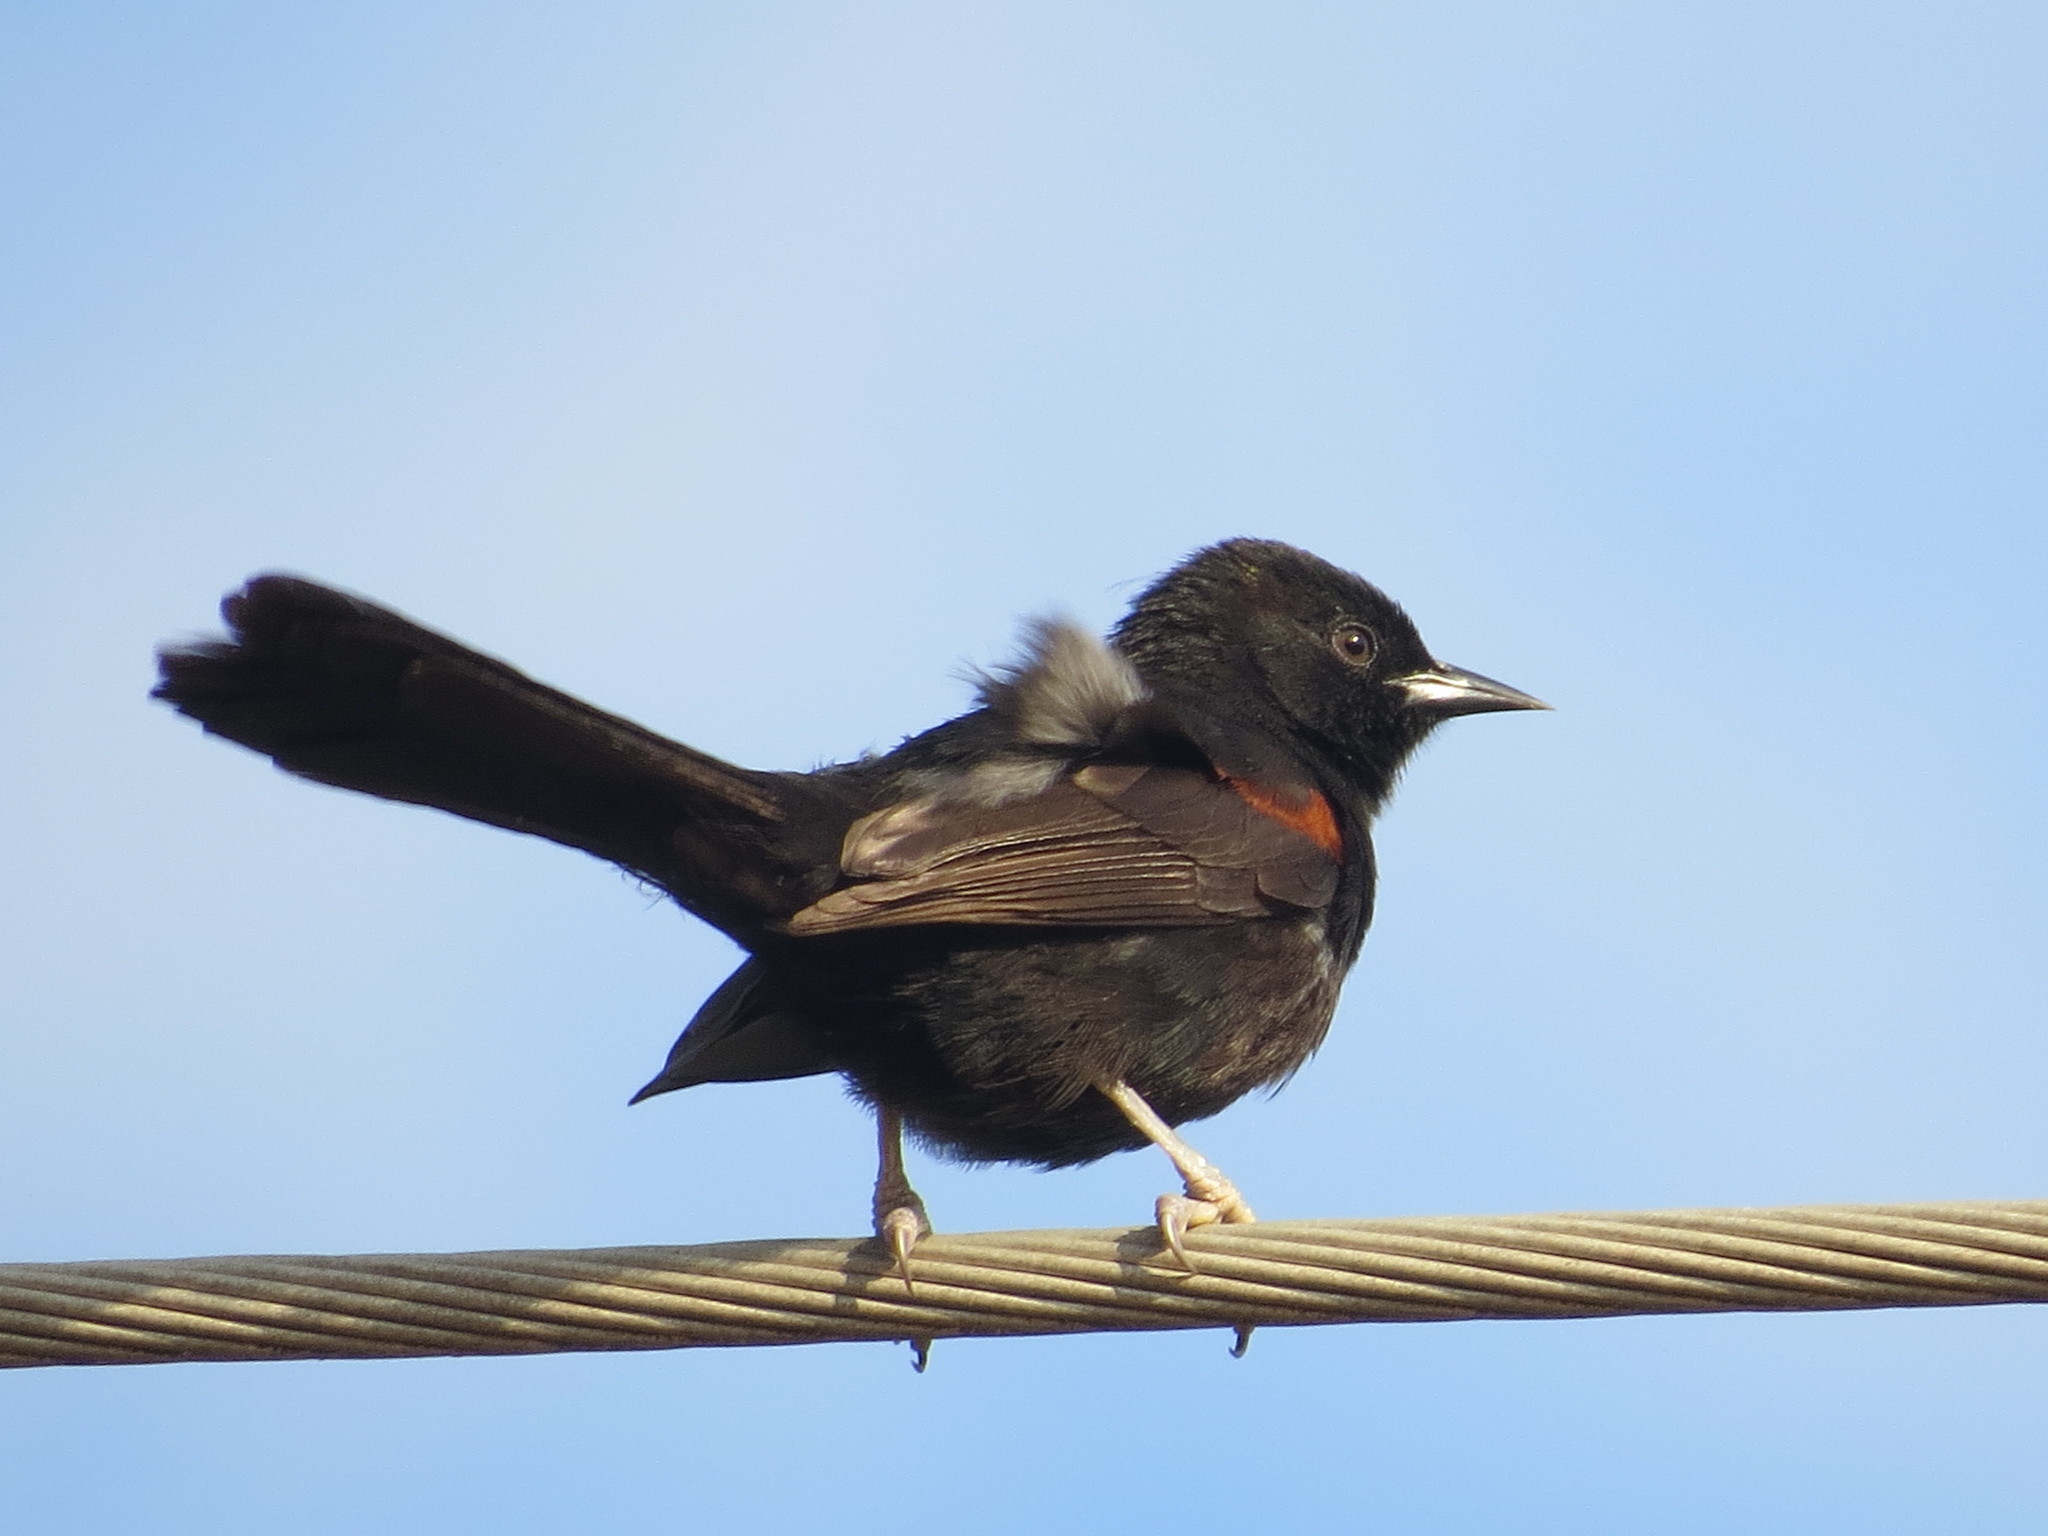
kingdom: Animalia
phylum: Chordata
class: Aves
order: Passeriformes
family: Icteridae
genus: Icterus
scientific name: Icterus cayanensis
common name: Epaulet oriole
